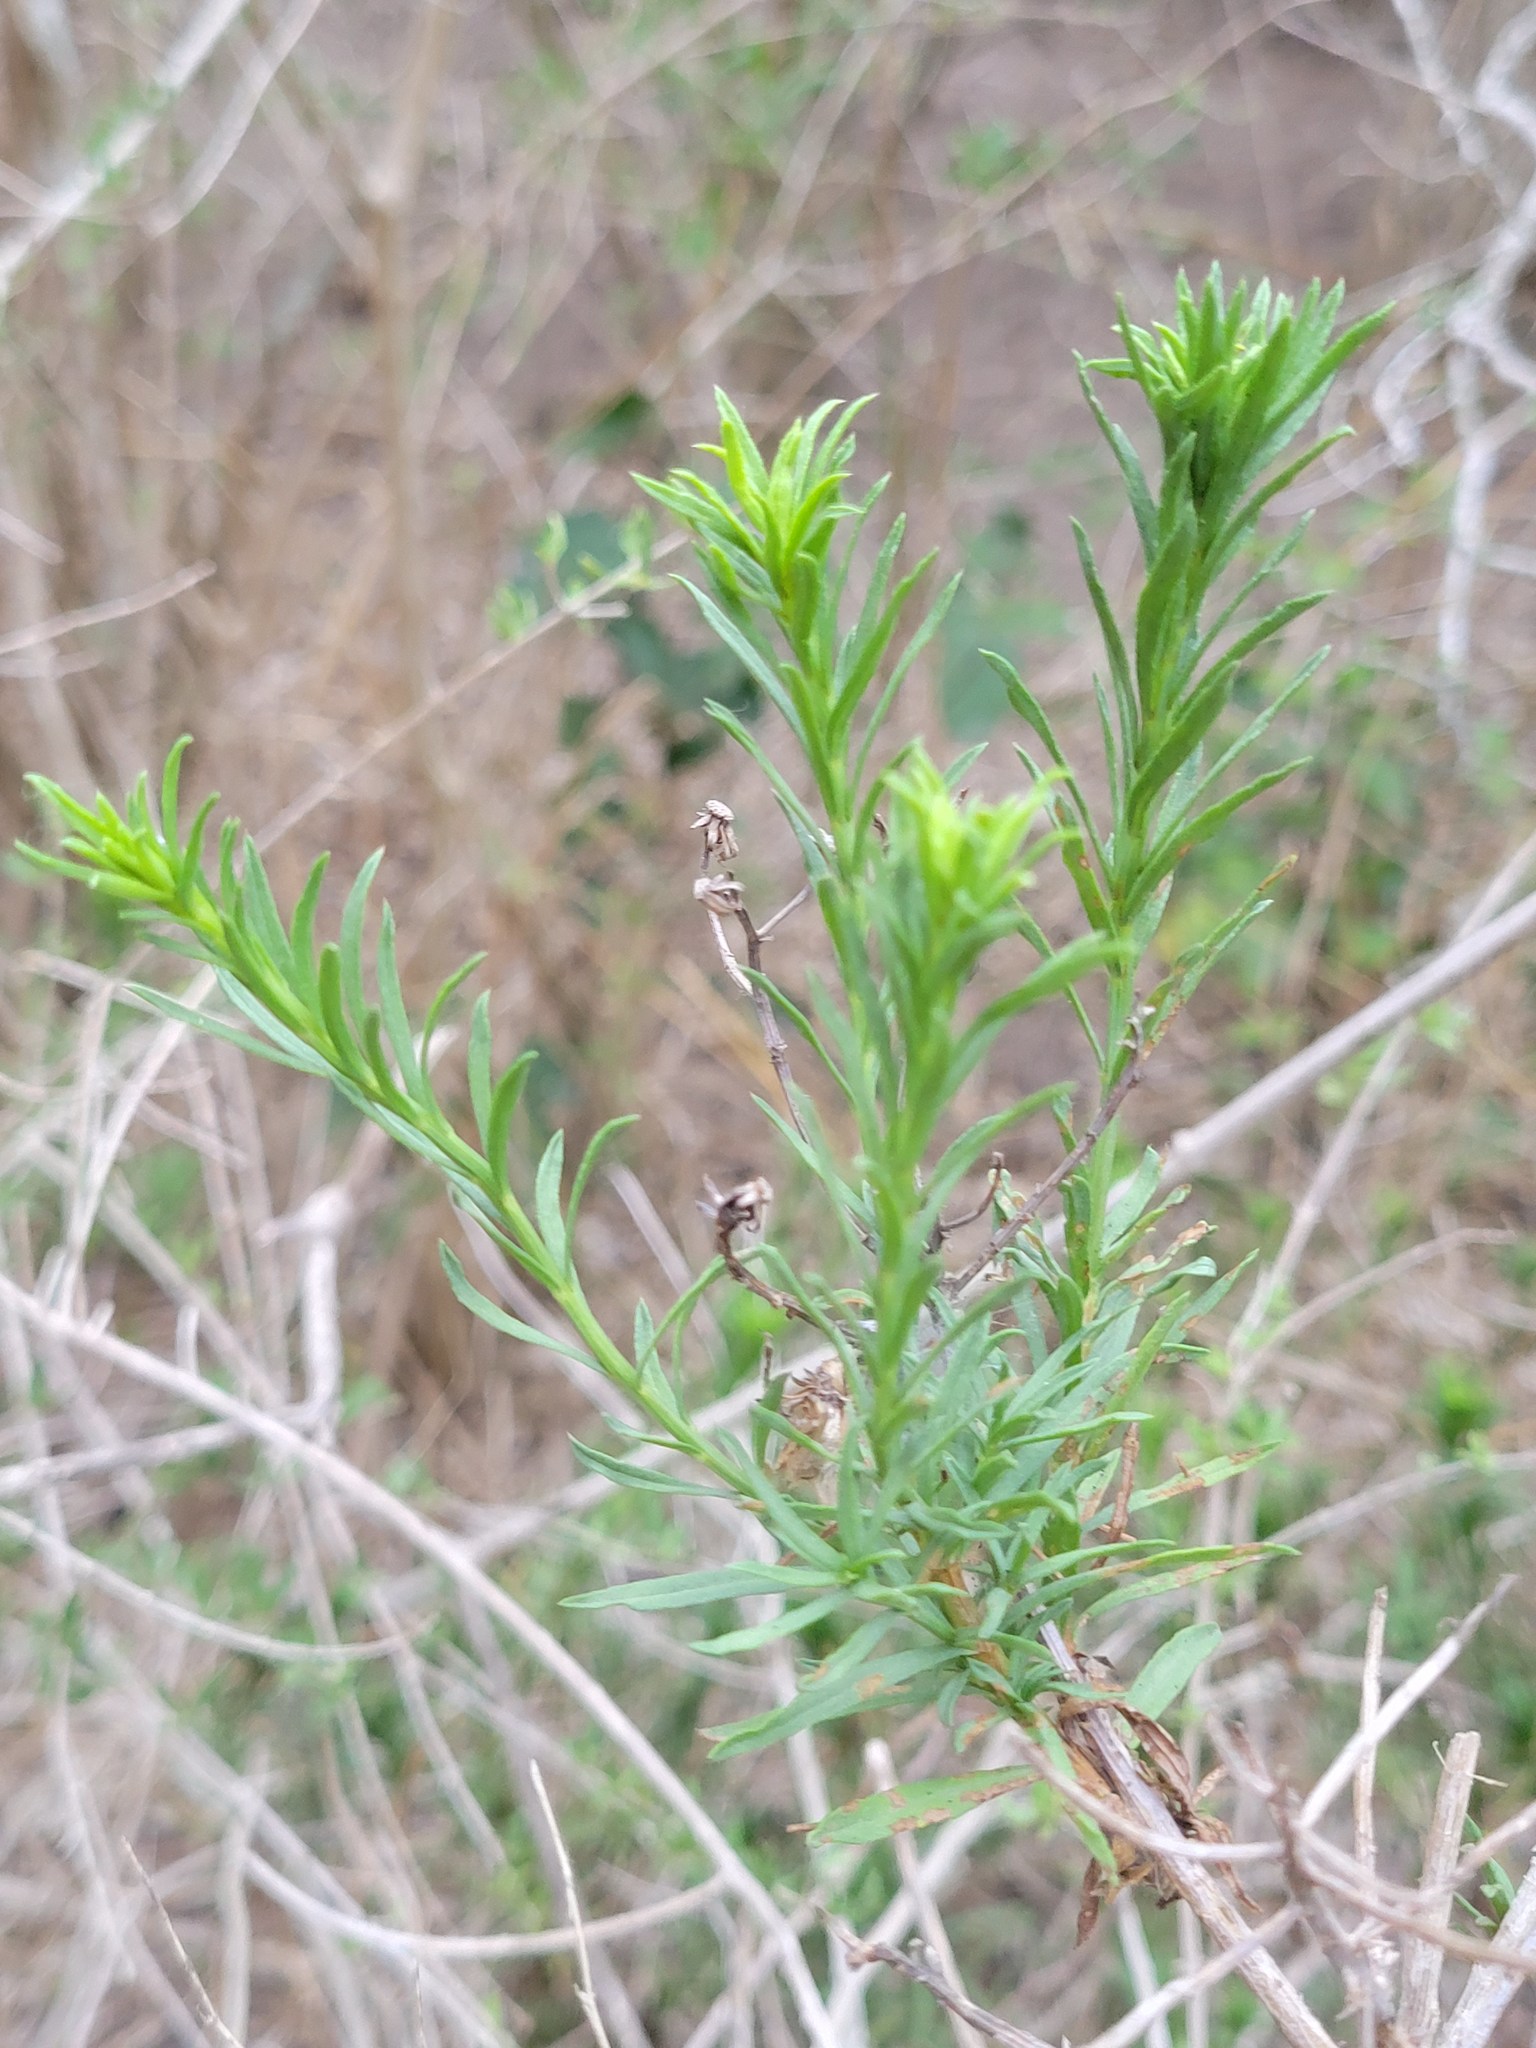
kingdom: Plantae
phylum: Tracheophyta
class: Magnoliopsida
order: Asterales
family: Asteraceae
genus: Baccharis
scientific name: Baccharis texana
